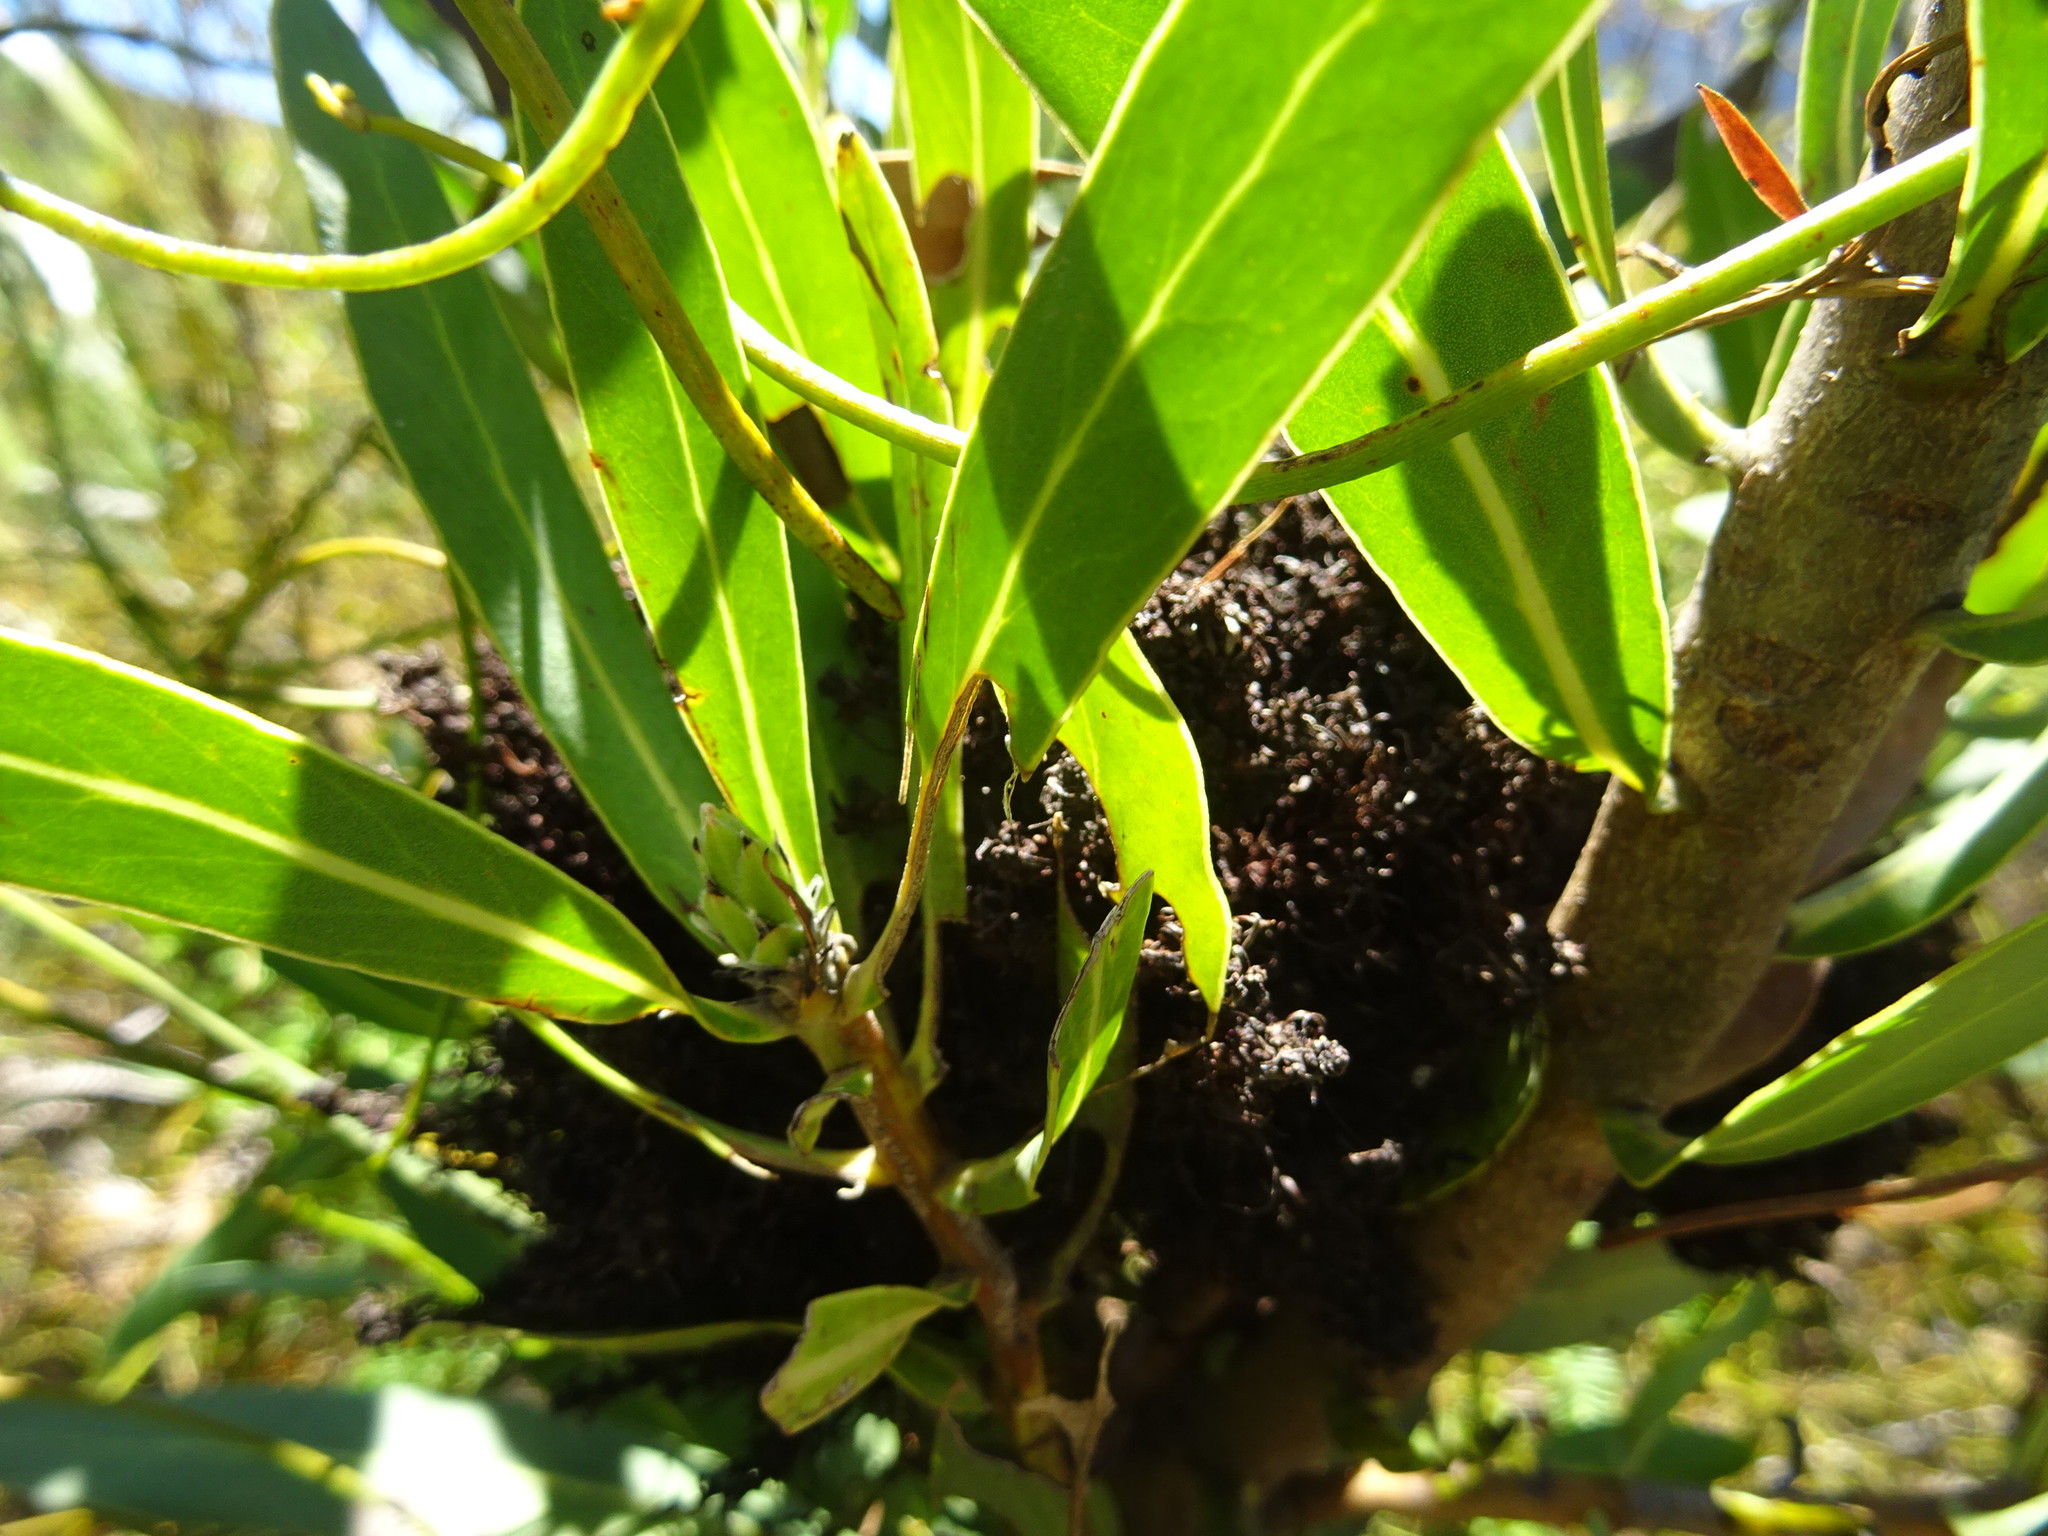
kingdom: Bacteria
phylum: Firmicutes
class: Bacilli
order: Acholeplasmatales
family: Acholeplasmataceae
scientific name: Acholeplasmataceae
